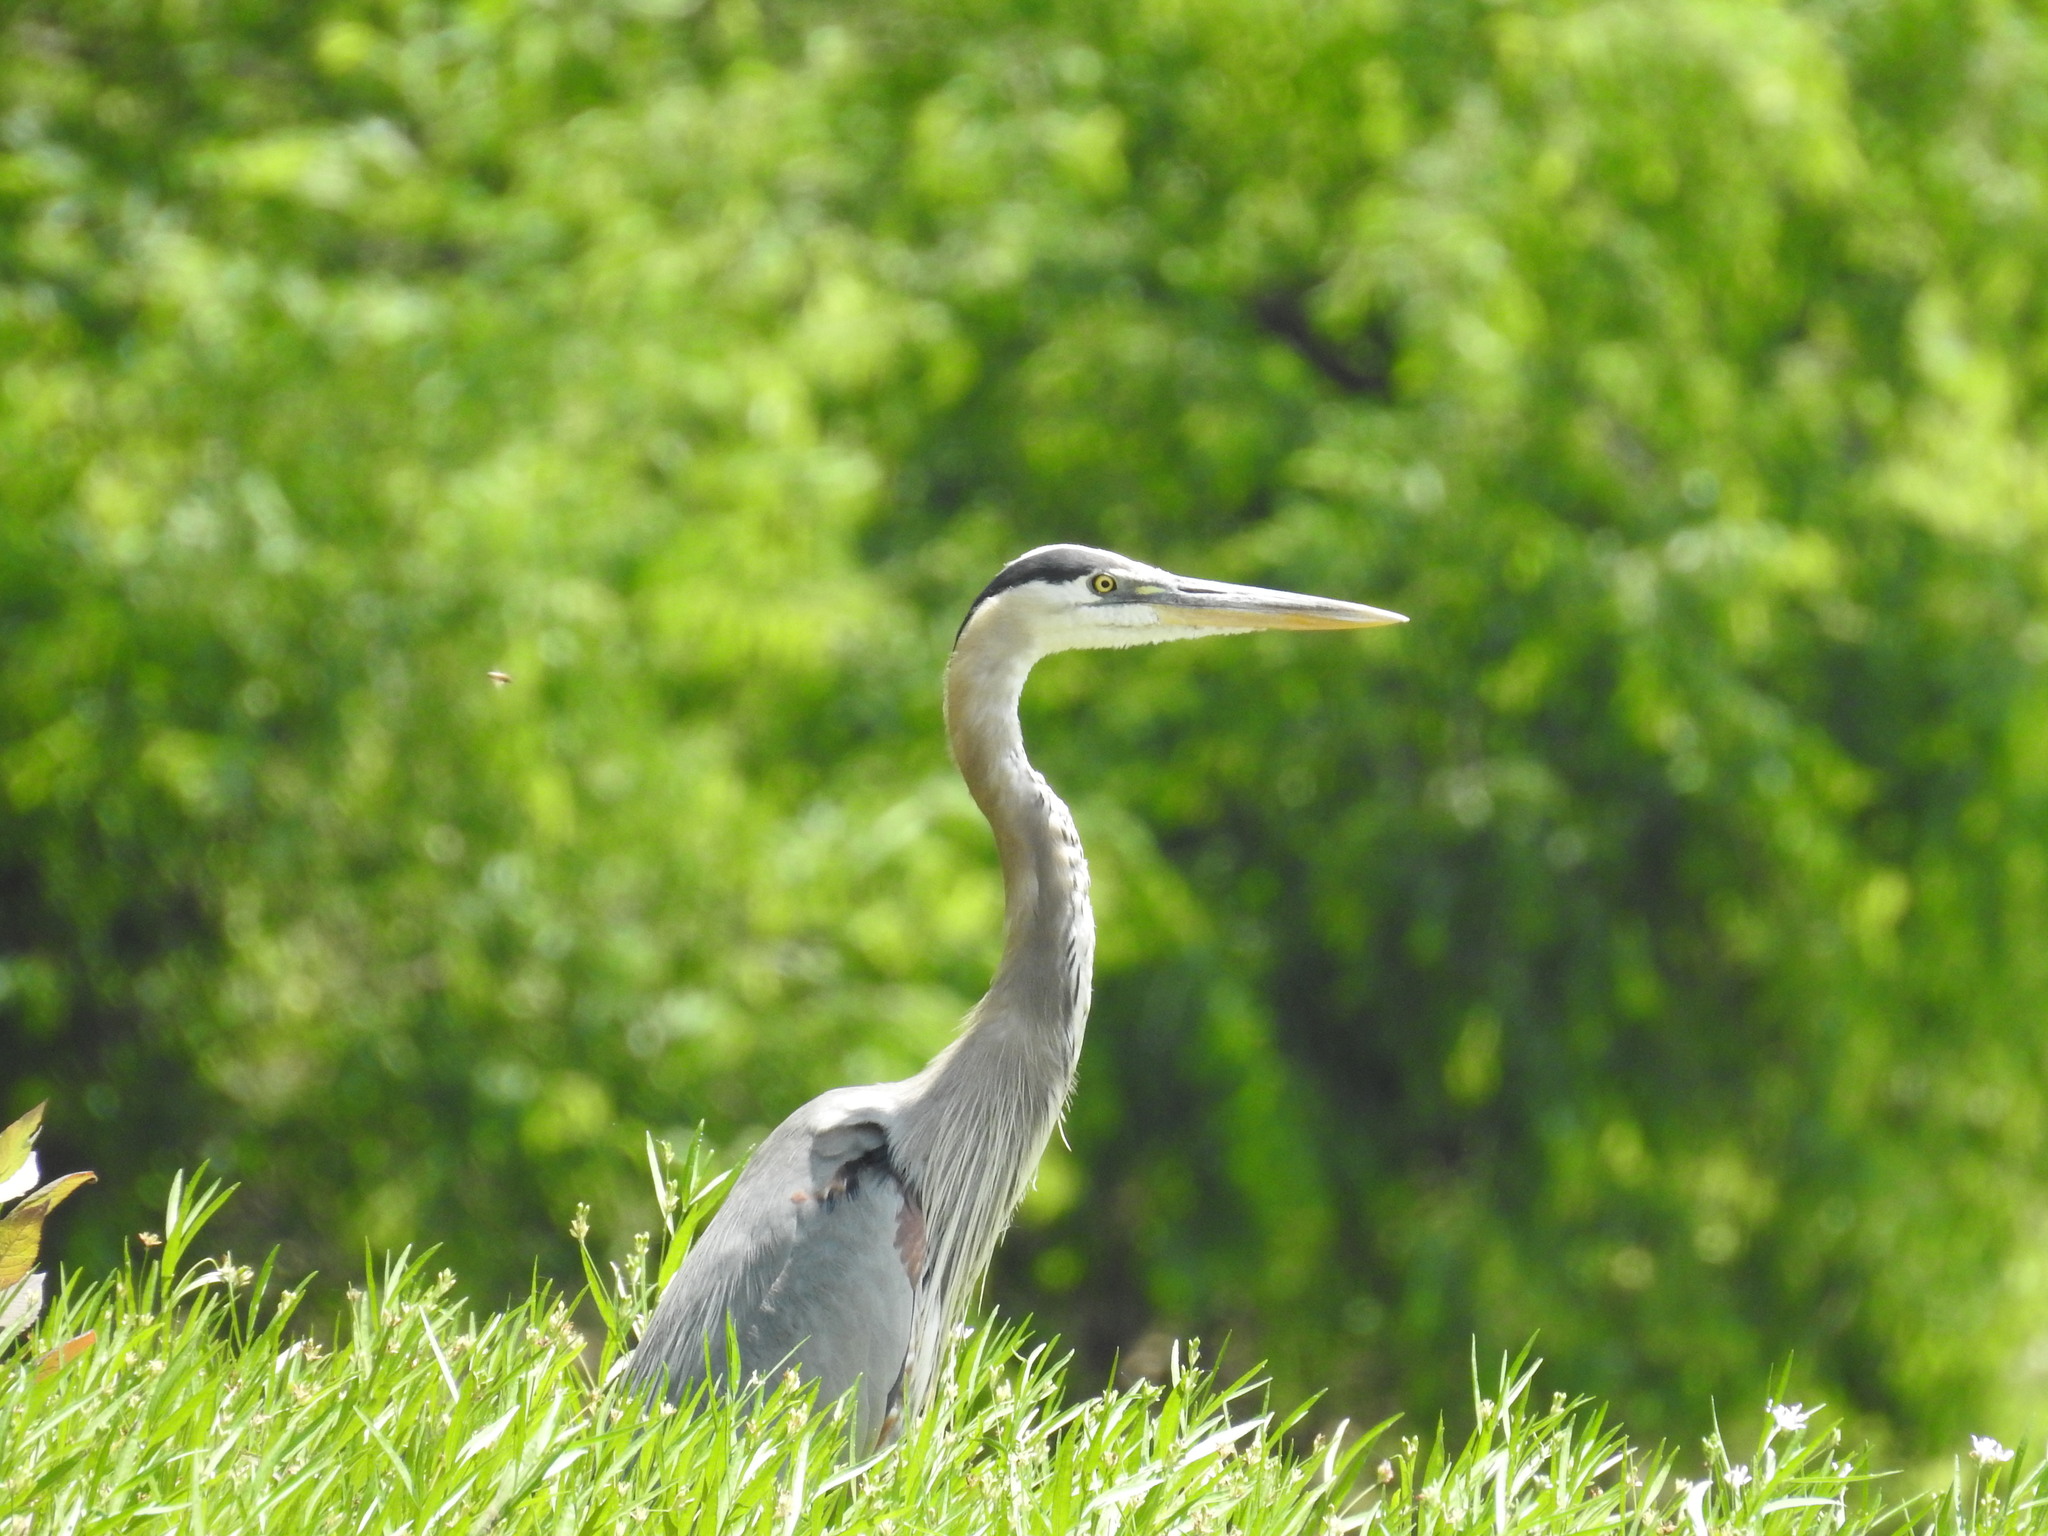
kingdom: Animalia
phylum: Chordata
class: Aves
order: Pelecaniformes
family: Ardeidae
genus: Ardea
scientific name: Ardea herodias
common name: Great blue heron
